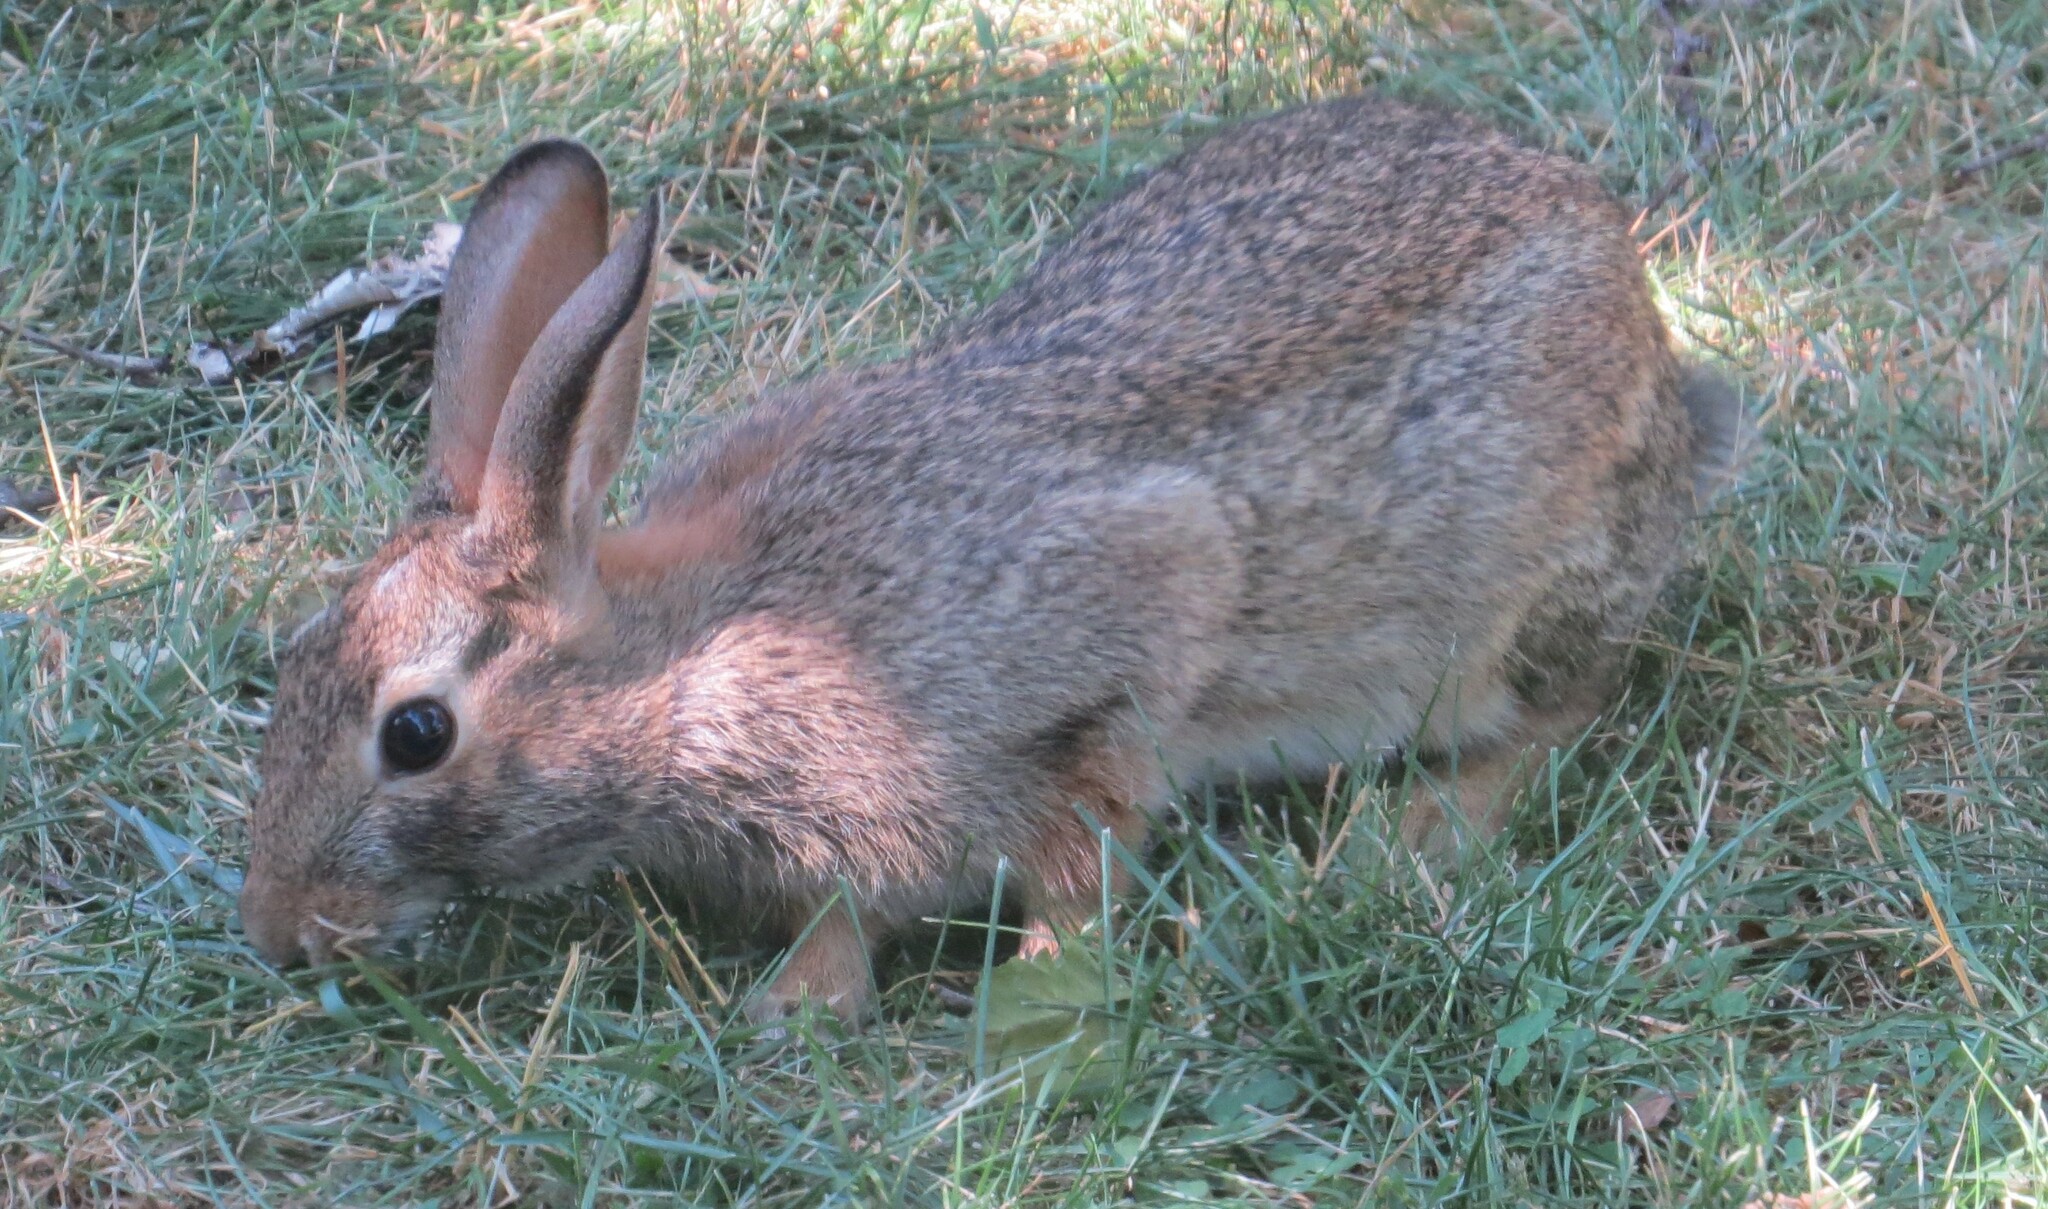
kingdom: Animalia
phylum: Chordata
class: Mammalia
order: Lagomorpha
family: Leporidae
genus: Sylvilagus
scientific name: Sylvilagus floridanus
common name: Eastern cottontail
